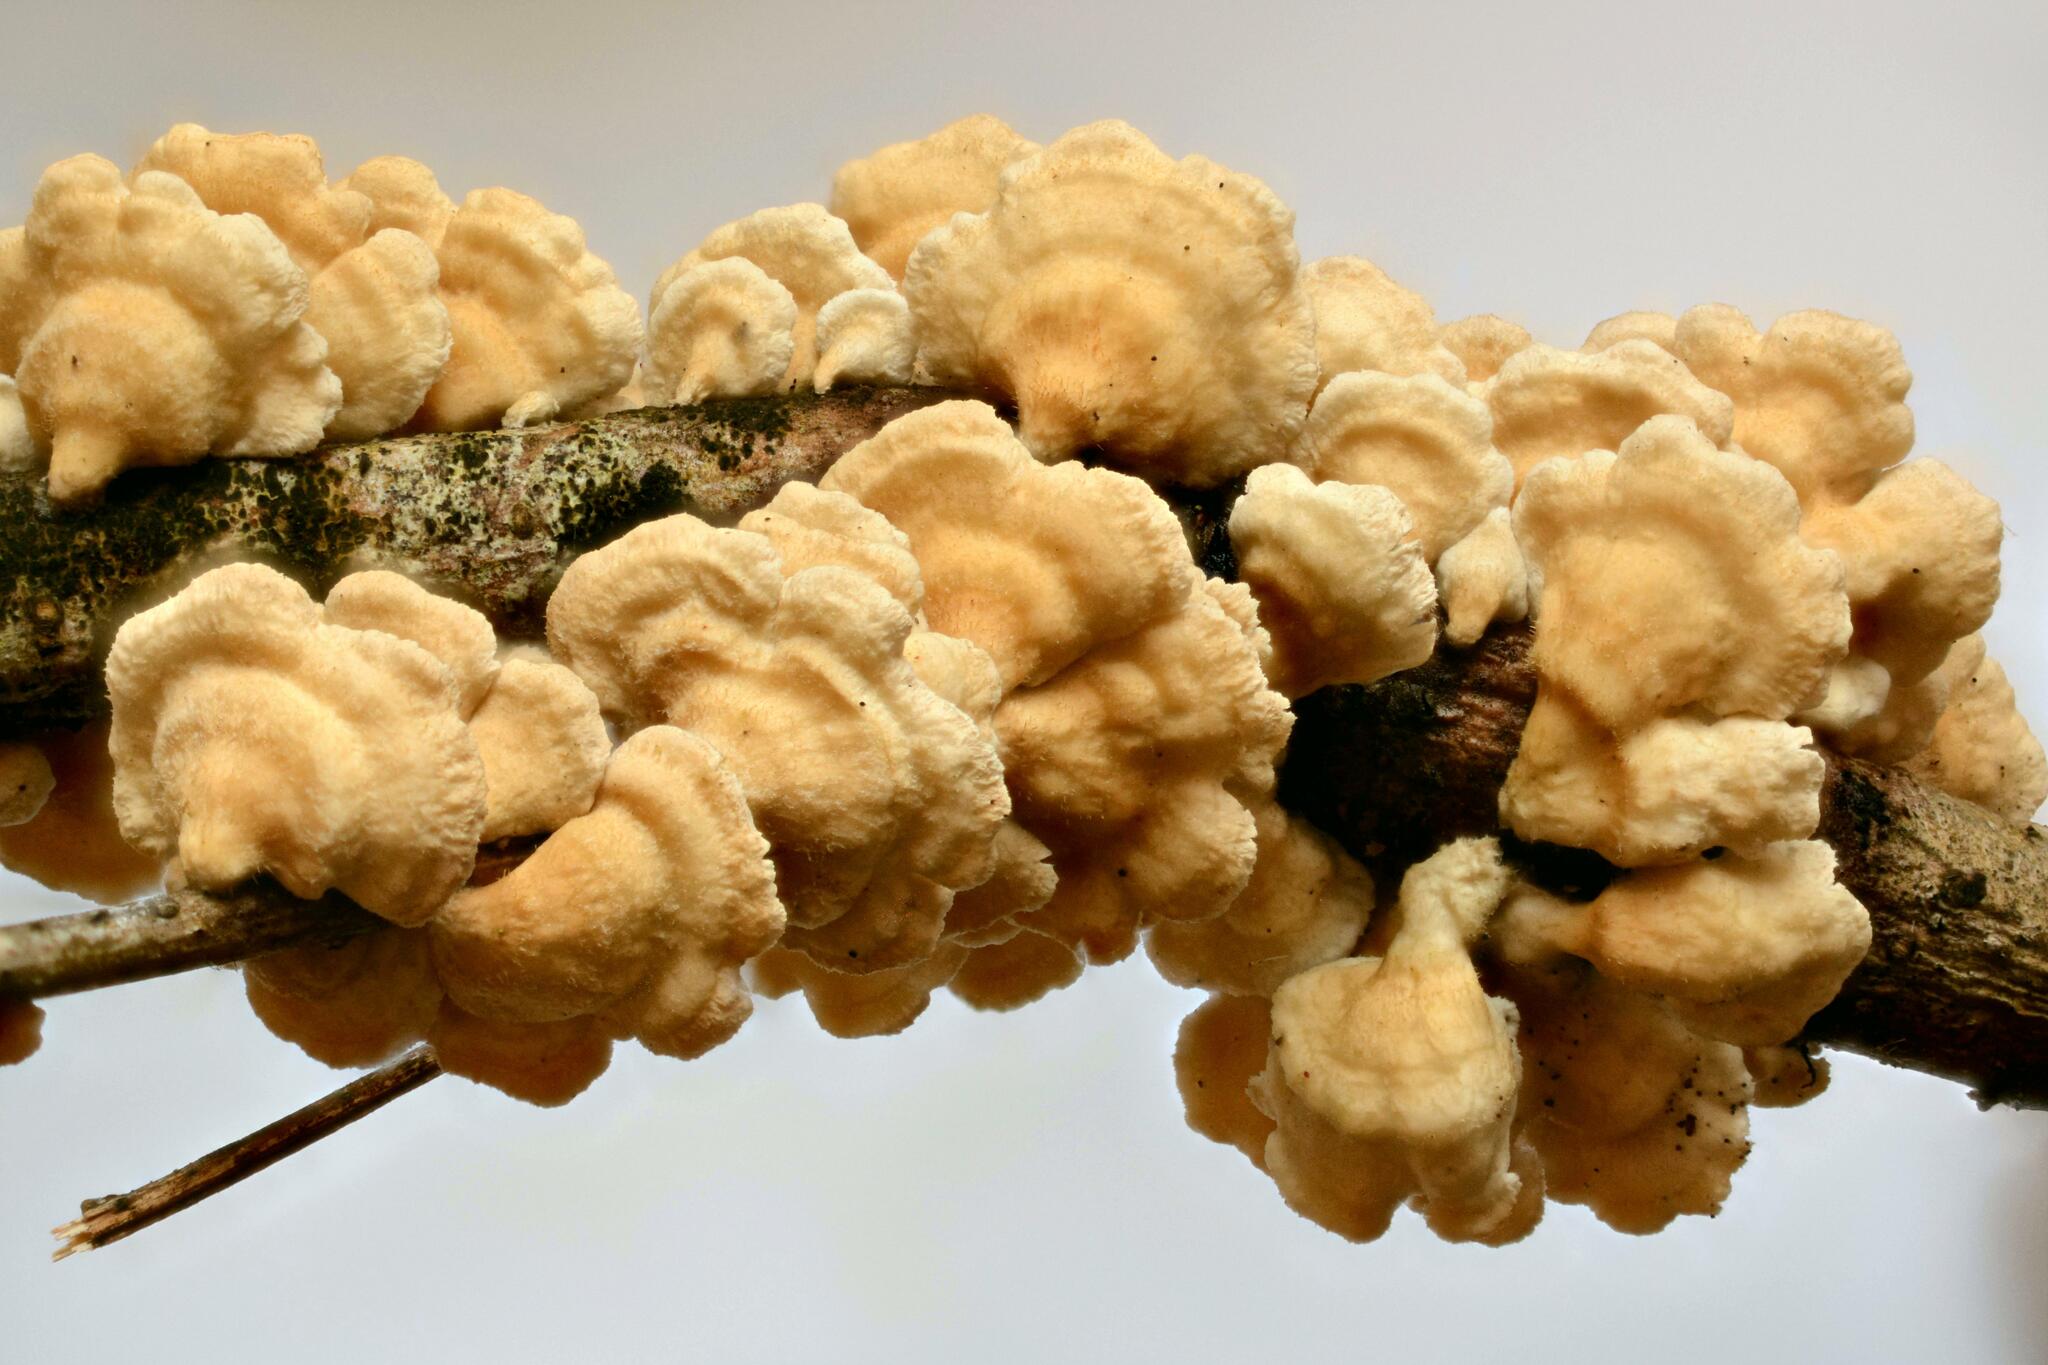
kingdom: Fungi
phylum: Basidiomycota
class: Agaricomycetes
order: Amylocorticiales
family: Amylocorticiaceae
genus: Plicaturopsis
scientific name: Plicaturopsis crispa
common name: Crimped gill
